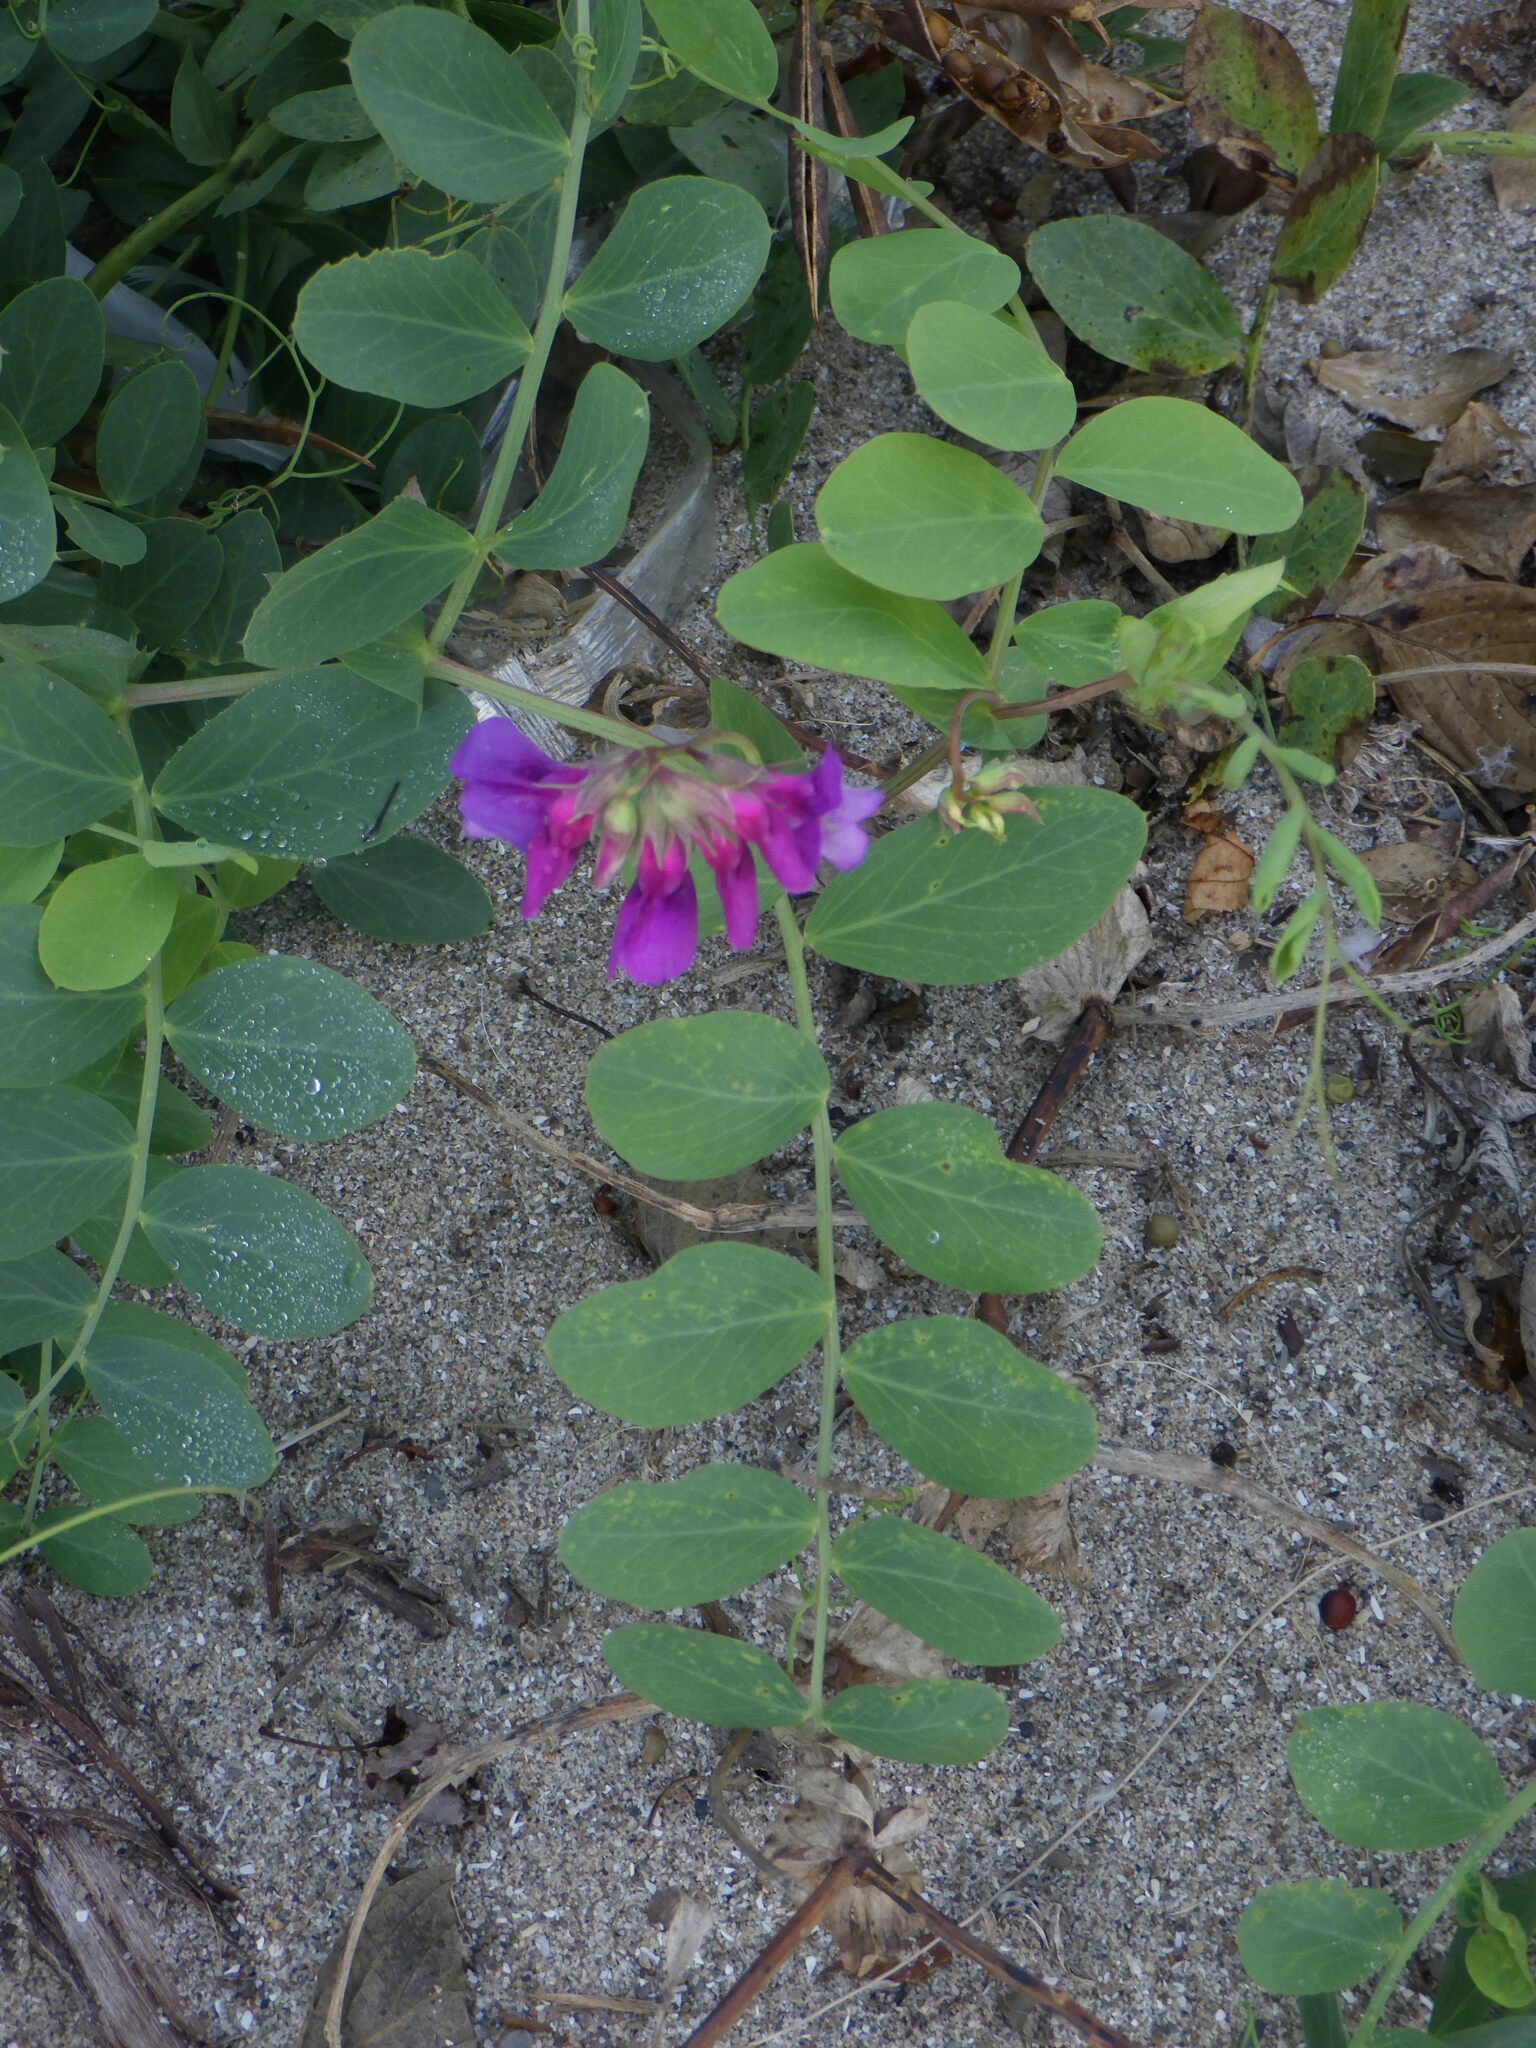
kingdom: Plantae
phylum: Tracheophyta
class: Magnoliopsida
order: Fabales
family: Fabaceae
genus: Lathyrus
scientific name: Lathyrus japonicus
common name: Sea pea
